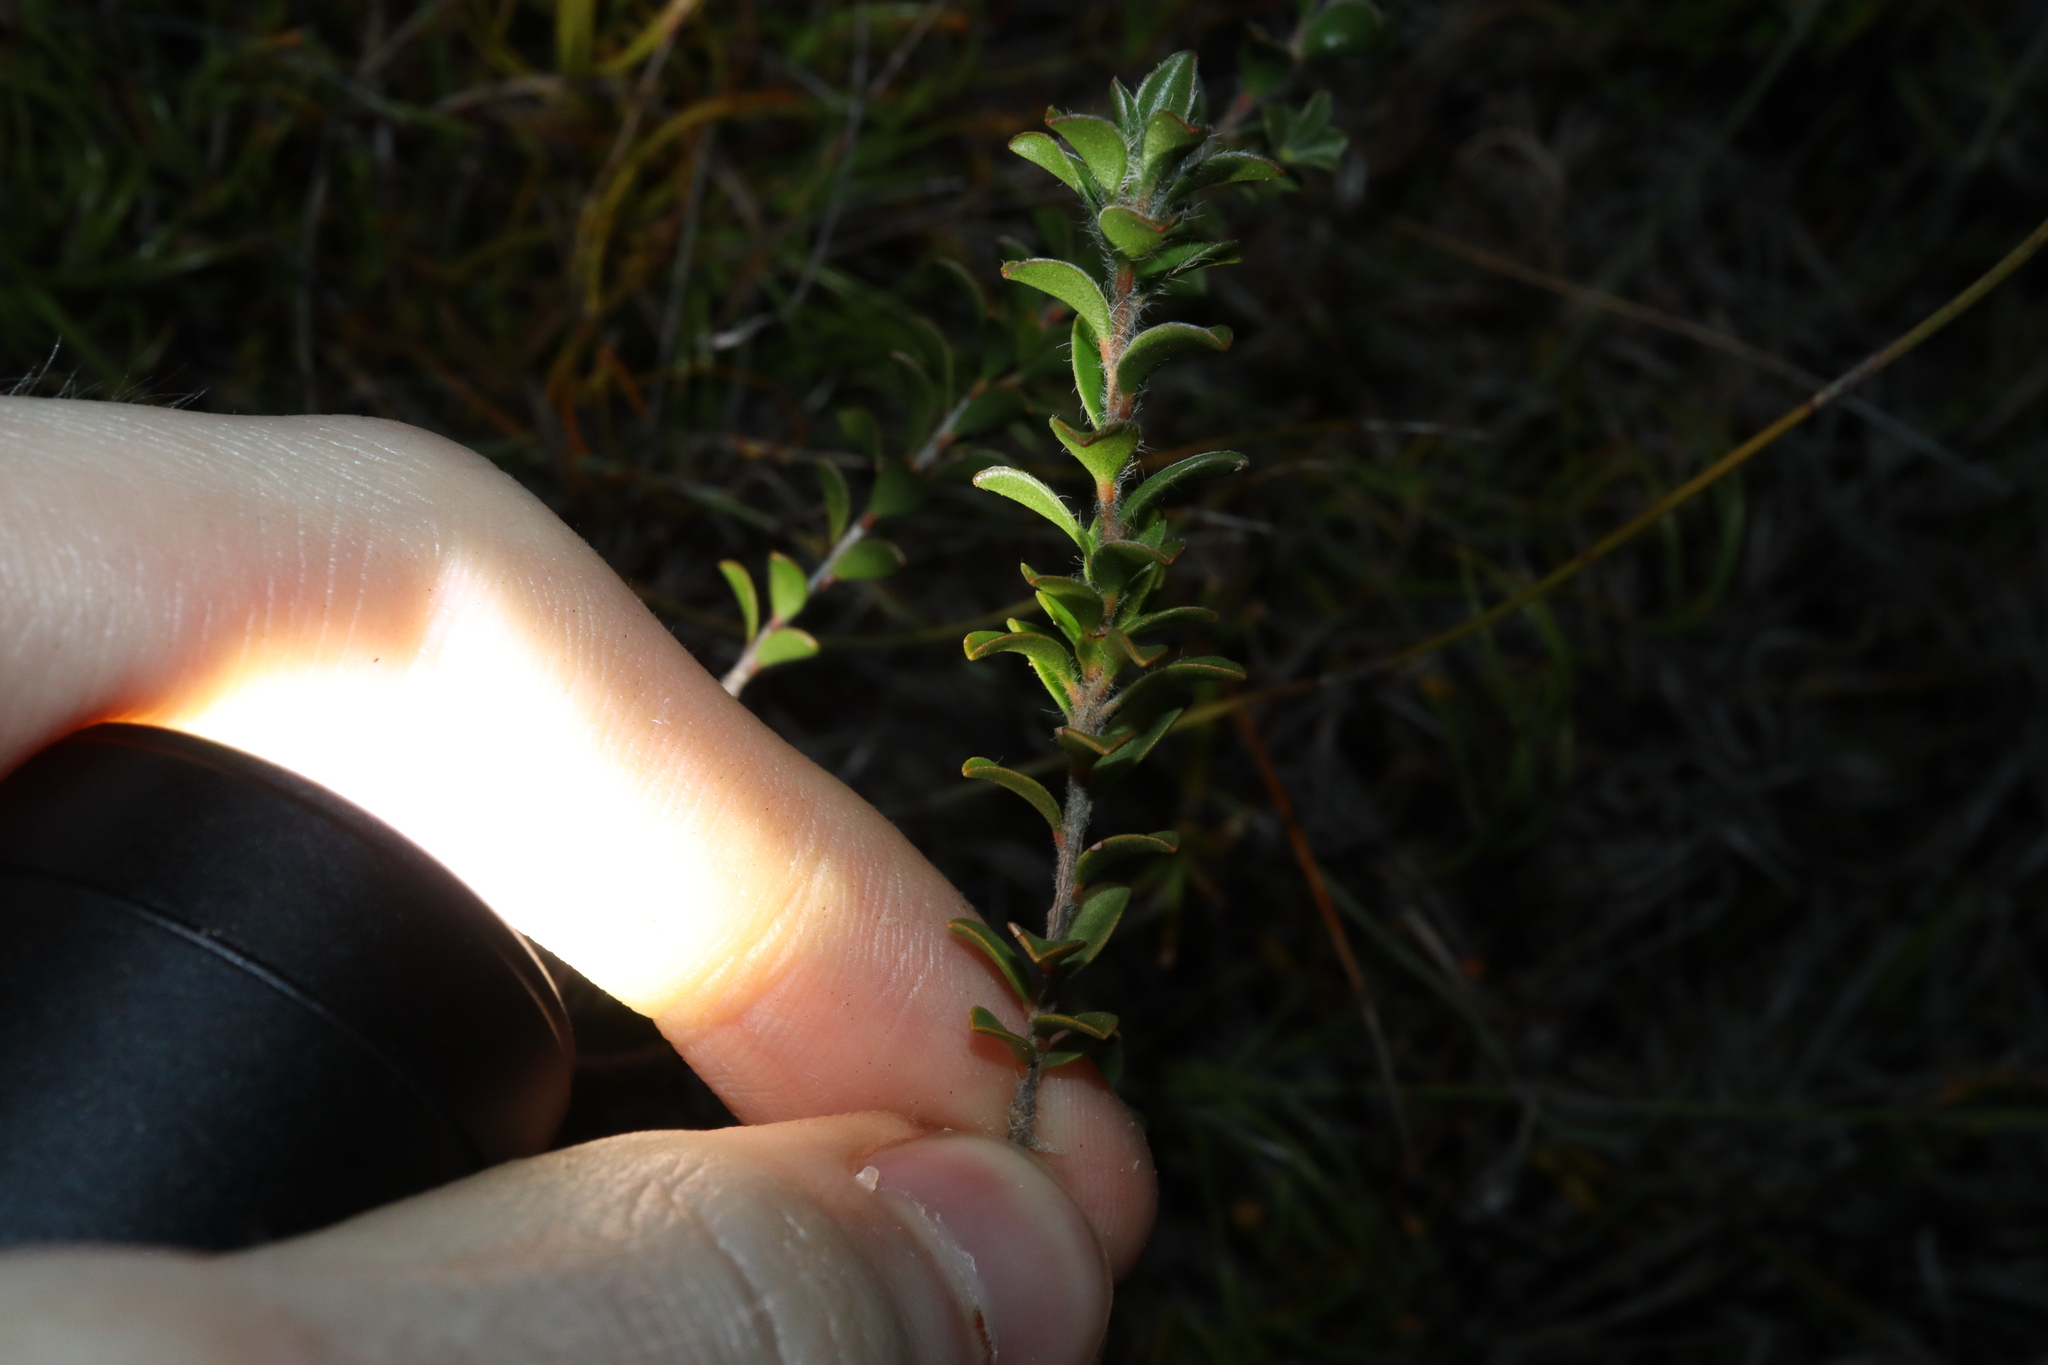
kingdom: Plantae
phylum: Tracheophyta
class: Magnoliopsida
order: Myrtales
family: Myrtaceae
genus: Taxandria
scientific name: Taxandria spathulata
